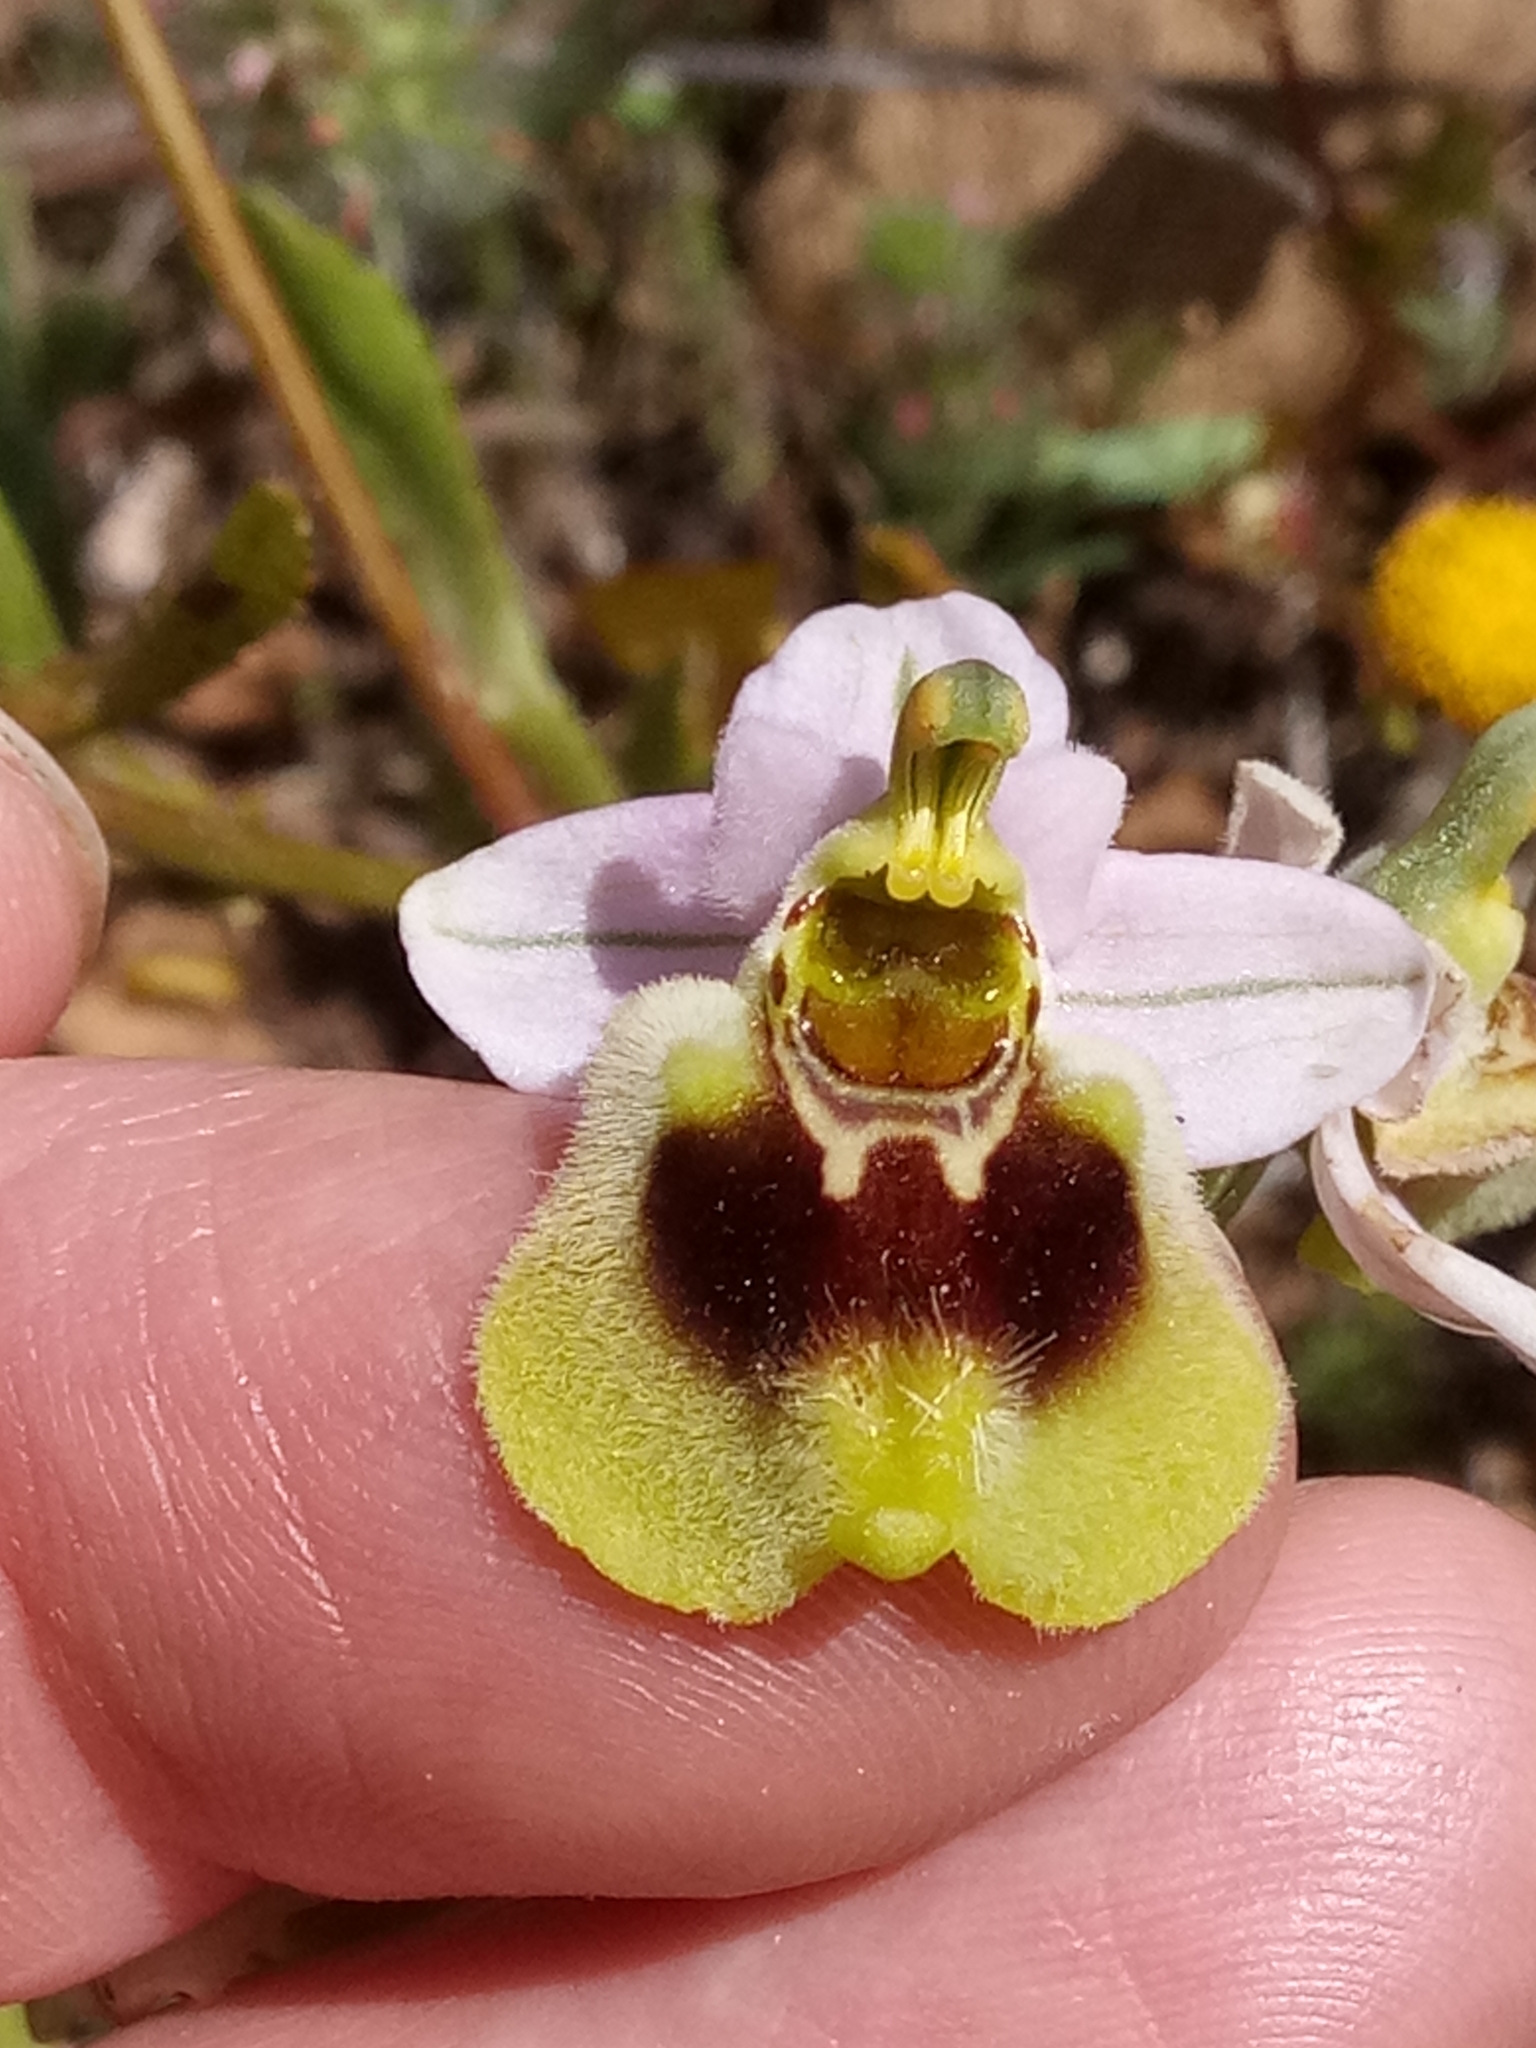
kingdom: Plantae
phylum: Tracheophyta
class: Liliopsida
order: Asparagales
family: Orchidaceae
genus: Ophrys
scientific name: Ophrys tenthredinifera
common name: Sawfly orchid
